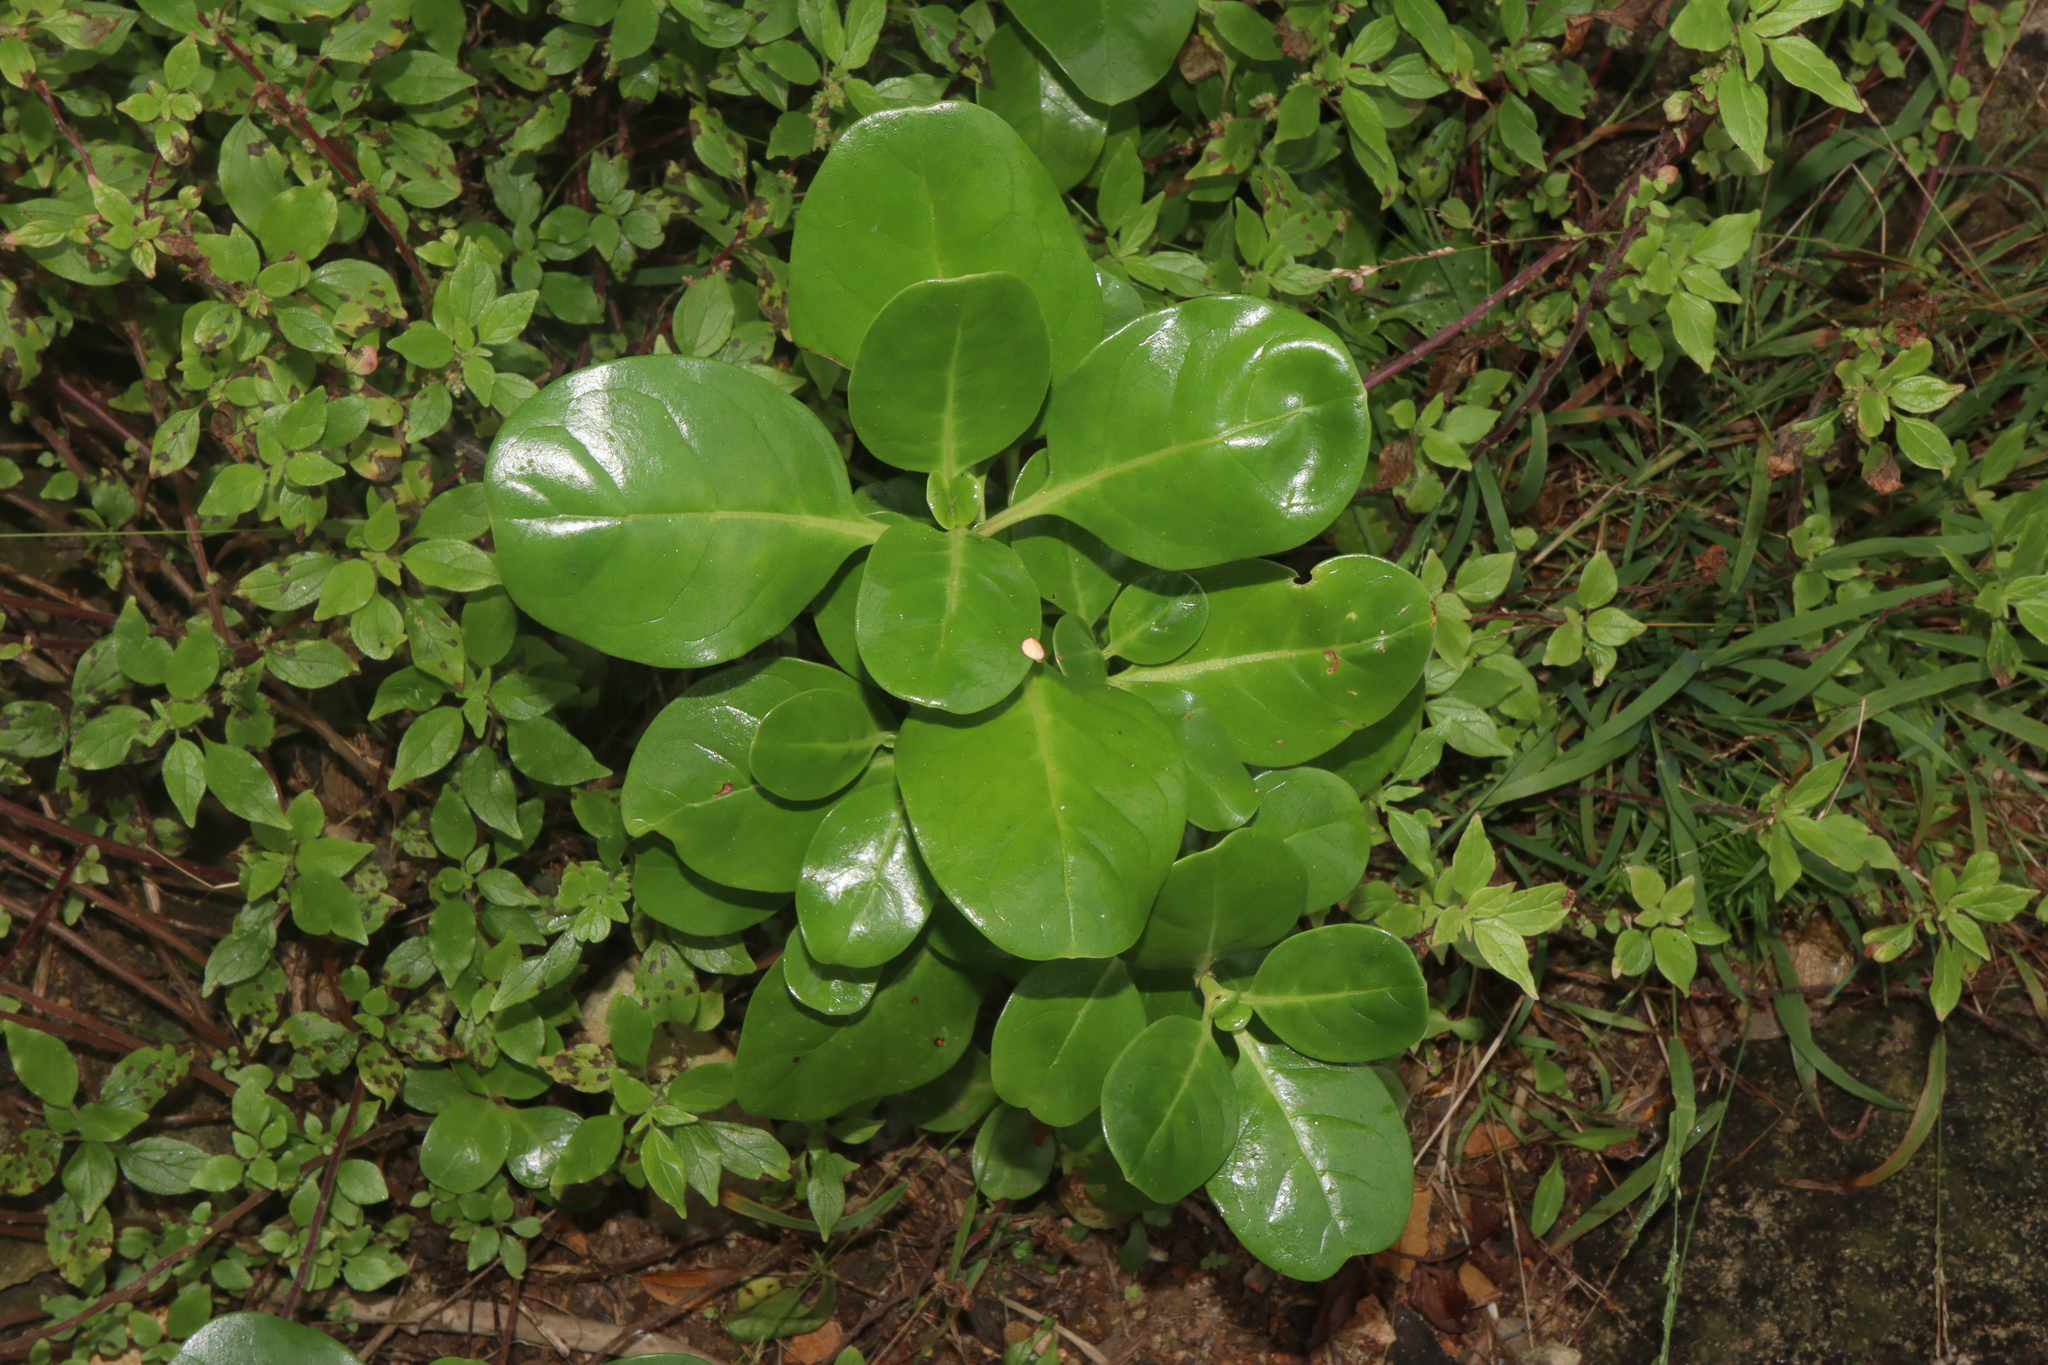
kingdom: Plantae
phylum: Tracheophyta
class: Magnoliopsida
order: Gentianales
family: Rubiaceae
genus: Coprosma
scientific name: Coprosma repens
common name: Tree bedstraw
